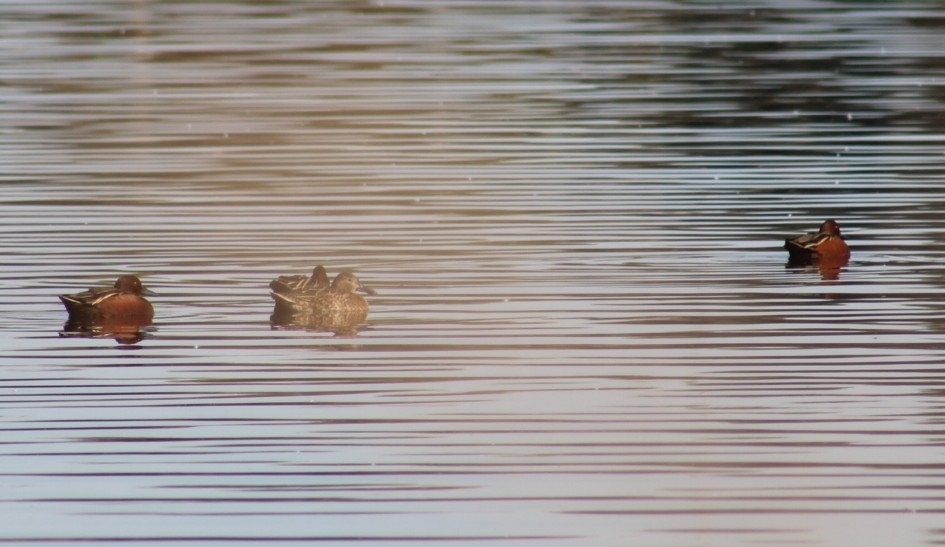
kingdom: Animalia
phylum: Chordata
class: Aves
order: Anseriformes
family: Anatidae
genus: Spatula
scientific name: Spatula cyanoptera
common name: Cinnamon teal
